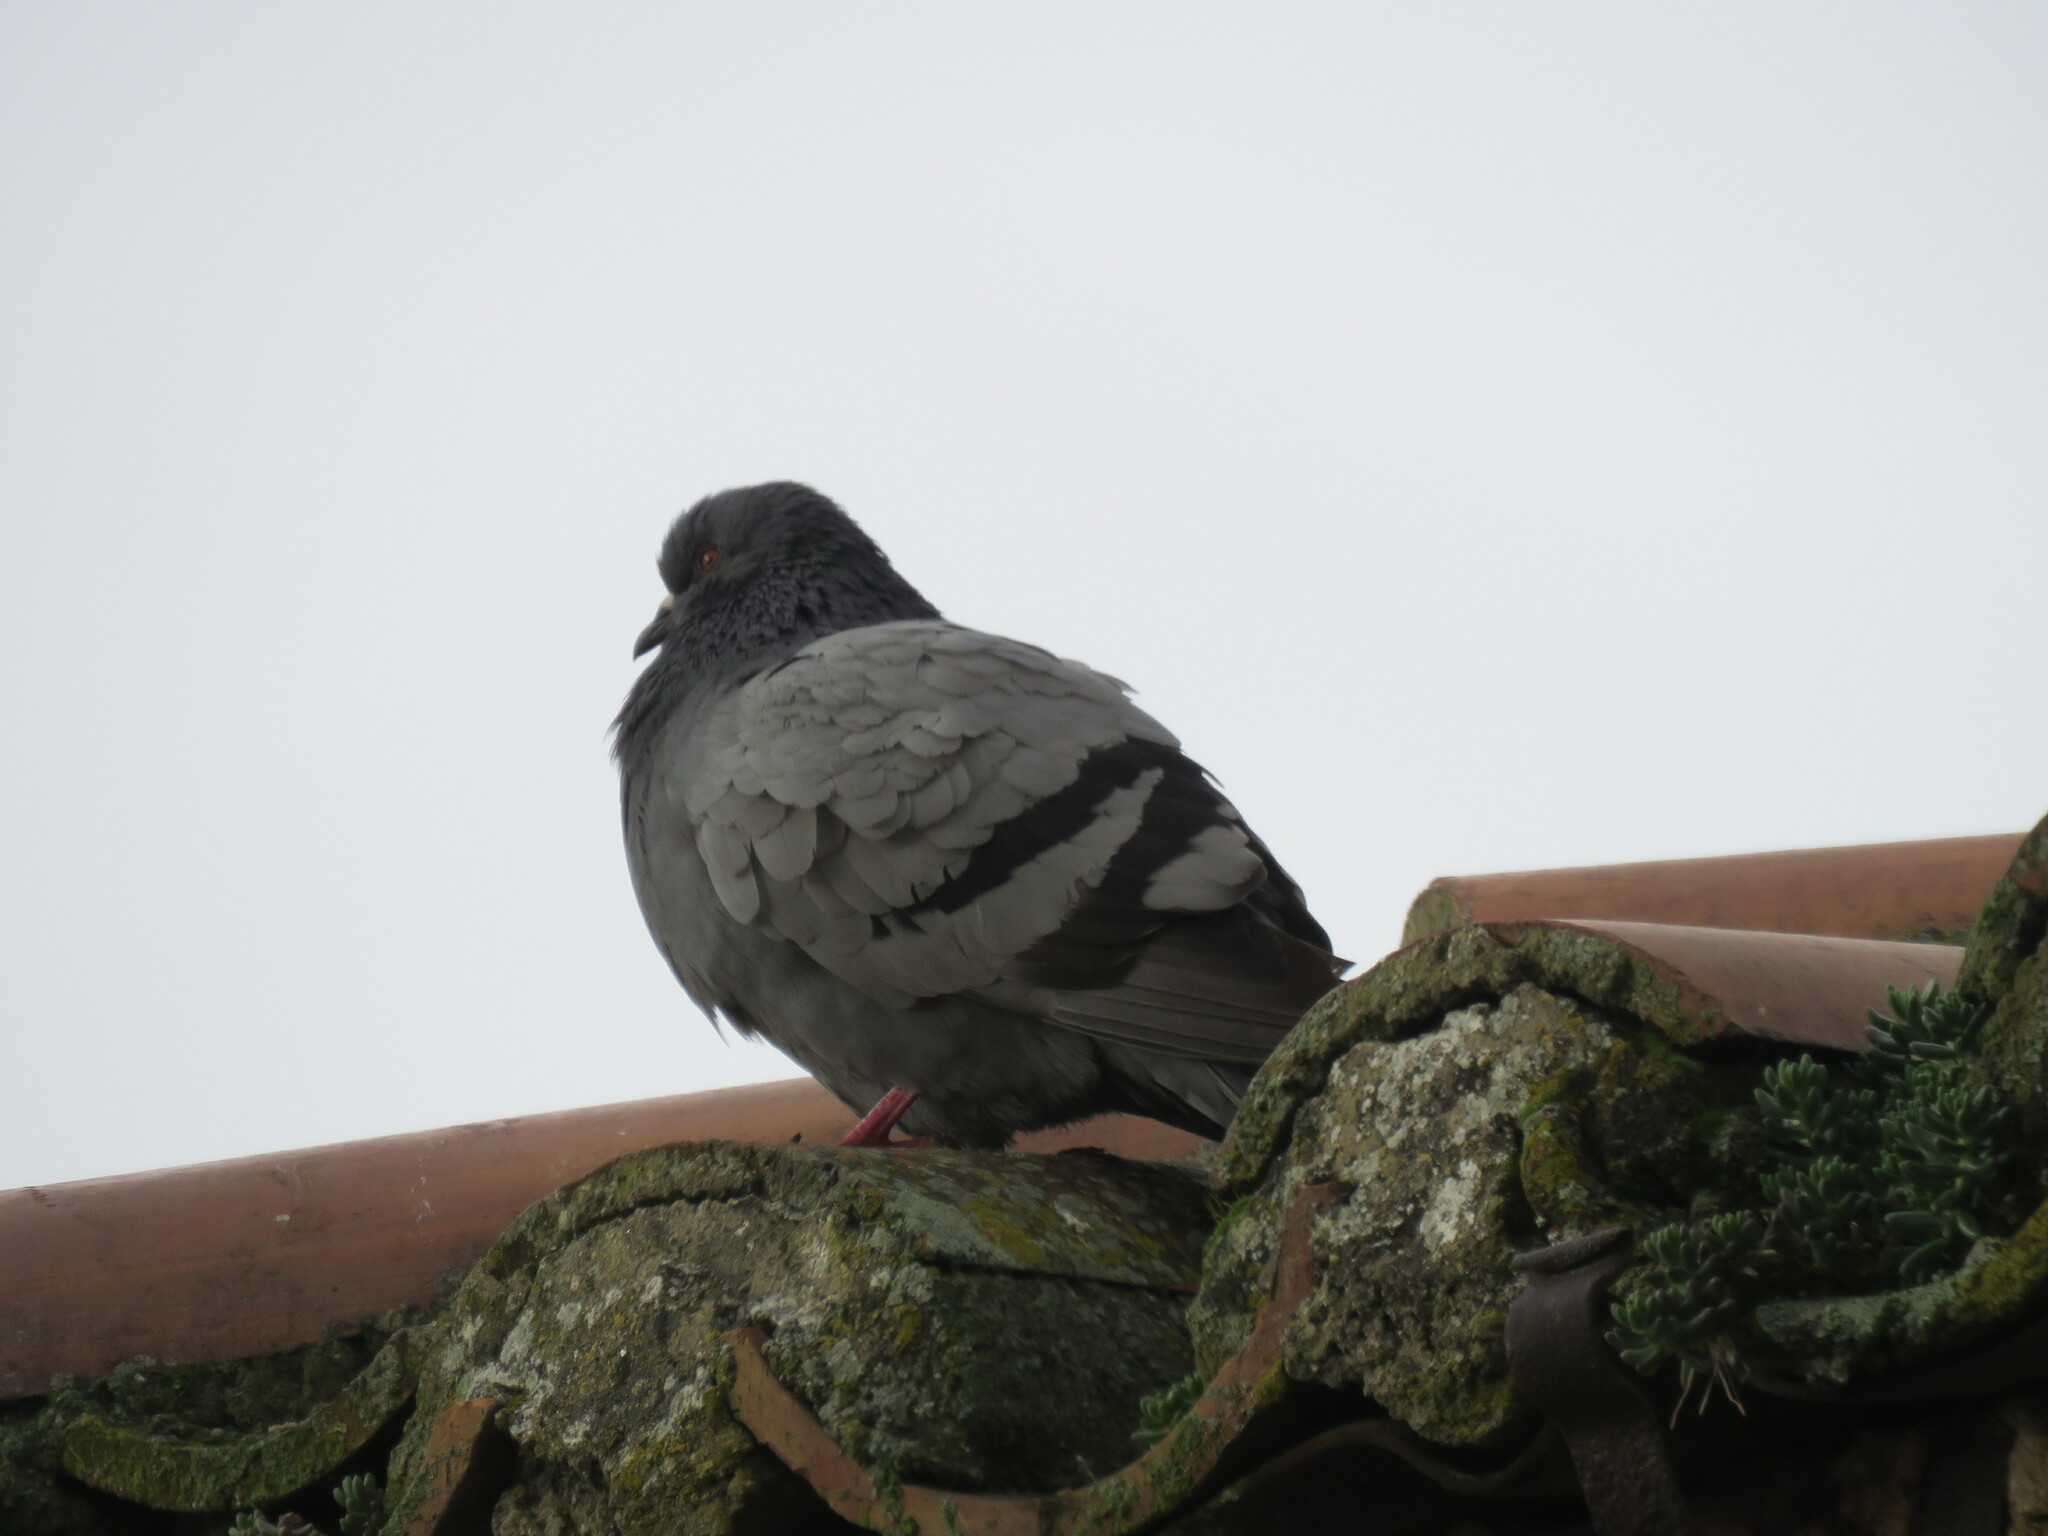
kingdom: Animalia
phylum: Chordata
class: Aves
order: Columbiformes
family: Columbidae
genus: Columba
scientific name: Columba livia
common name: Rock pigeon
